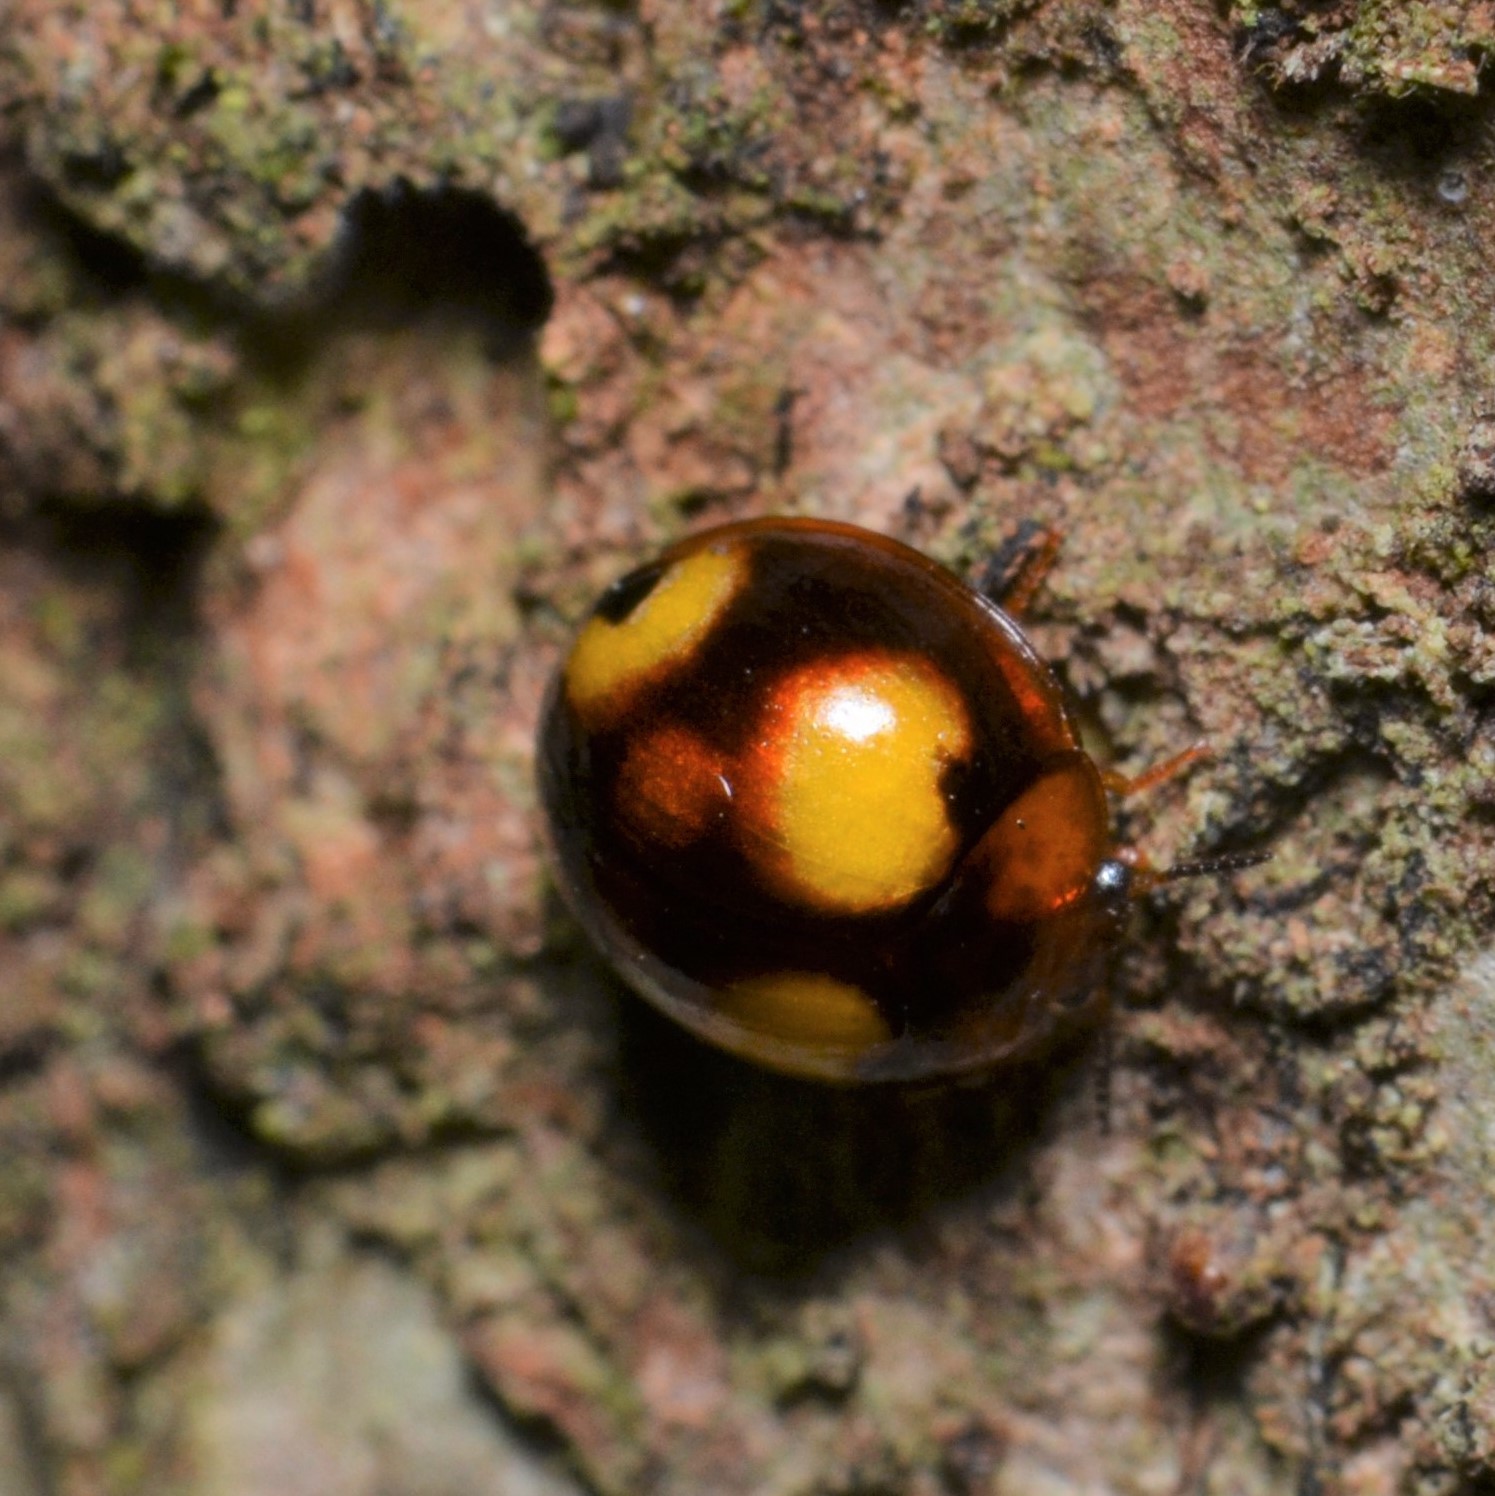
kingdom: Animalia
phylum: Arthropoda
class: Insecta
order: Coleoptera
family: Tenebrionidae
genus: Derispia
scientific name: Derispia
